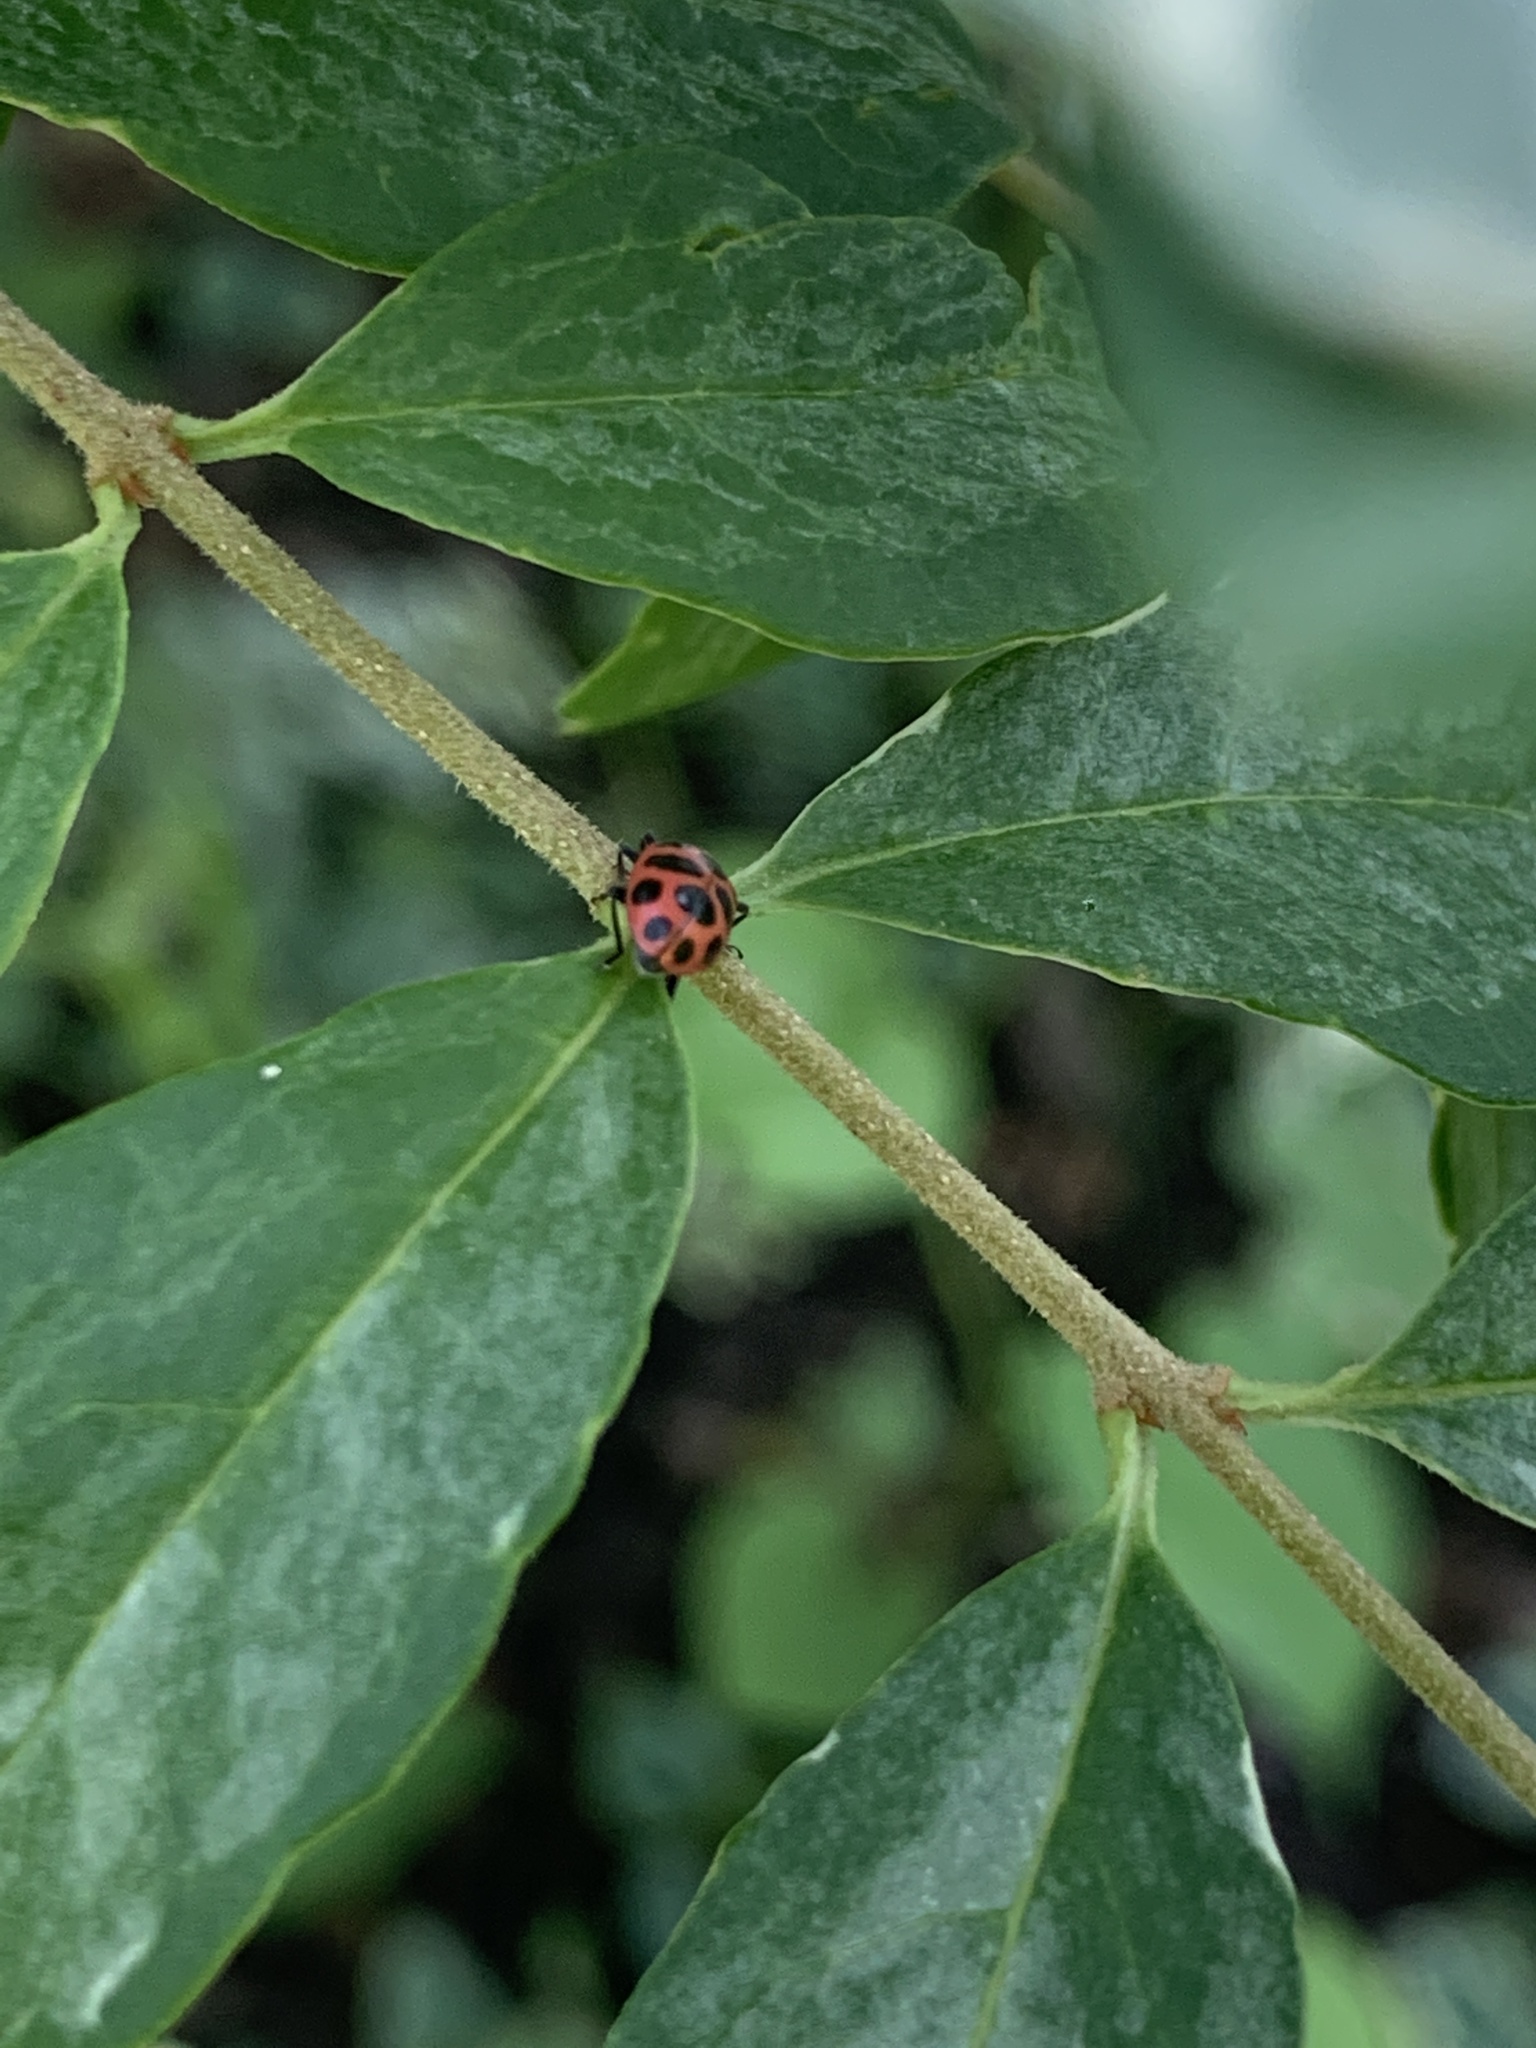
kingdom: Animalia
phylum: Arthropoda
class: Insecta
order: Coleoptera
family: Coccinellidae
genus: Coleomegilla
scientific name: Coleomegilla maculata
